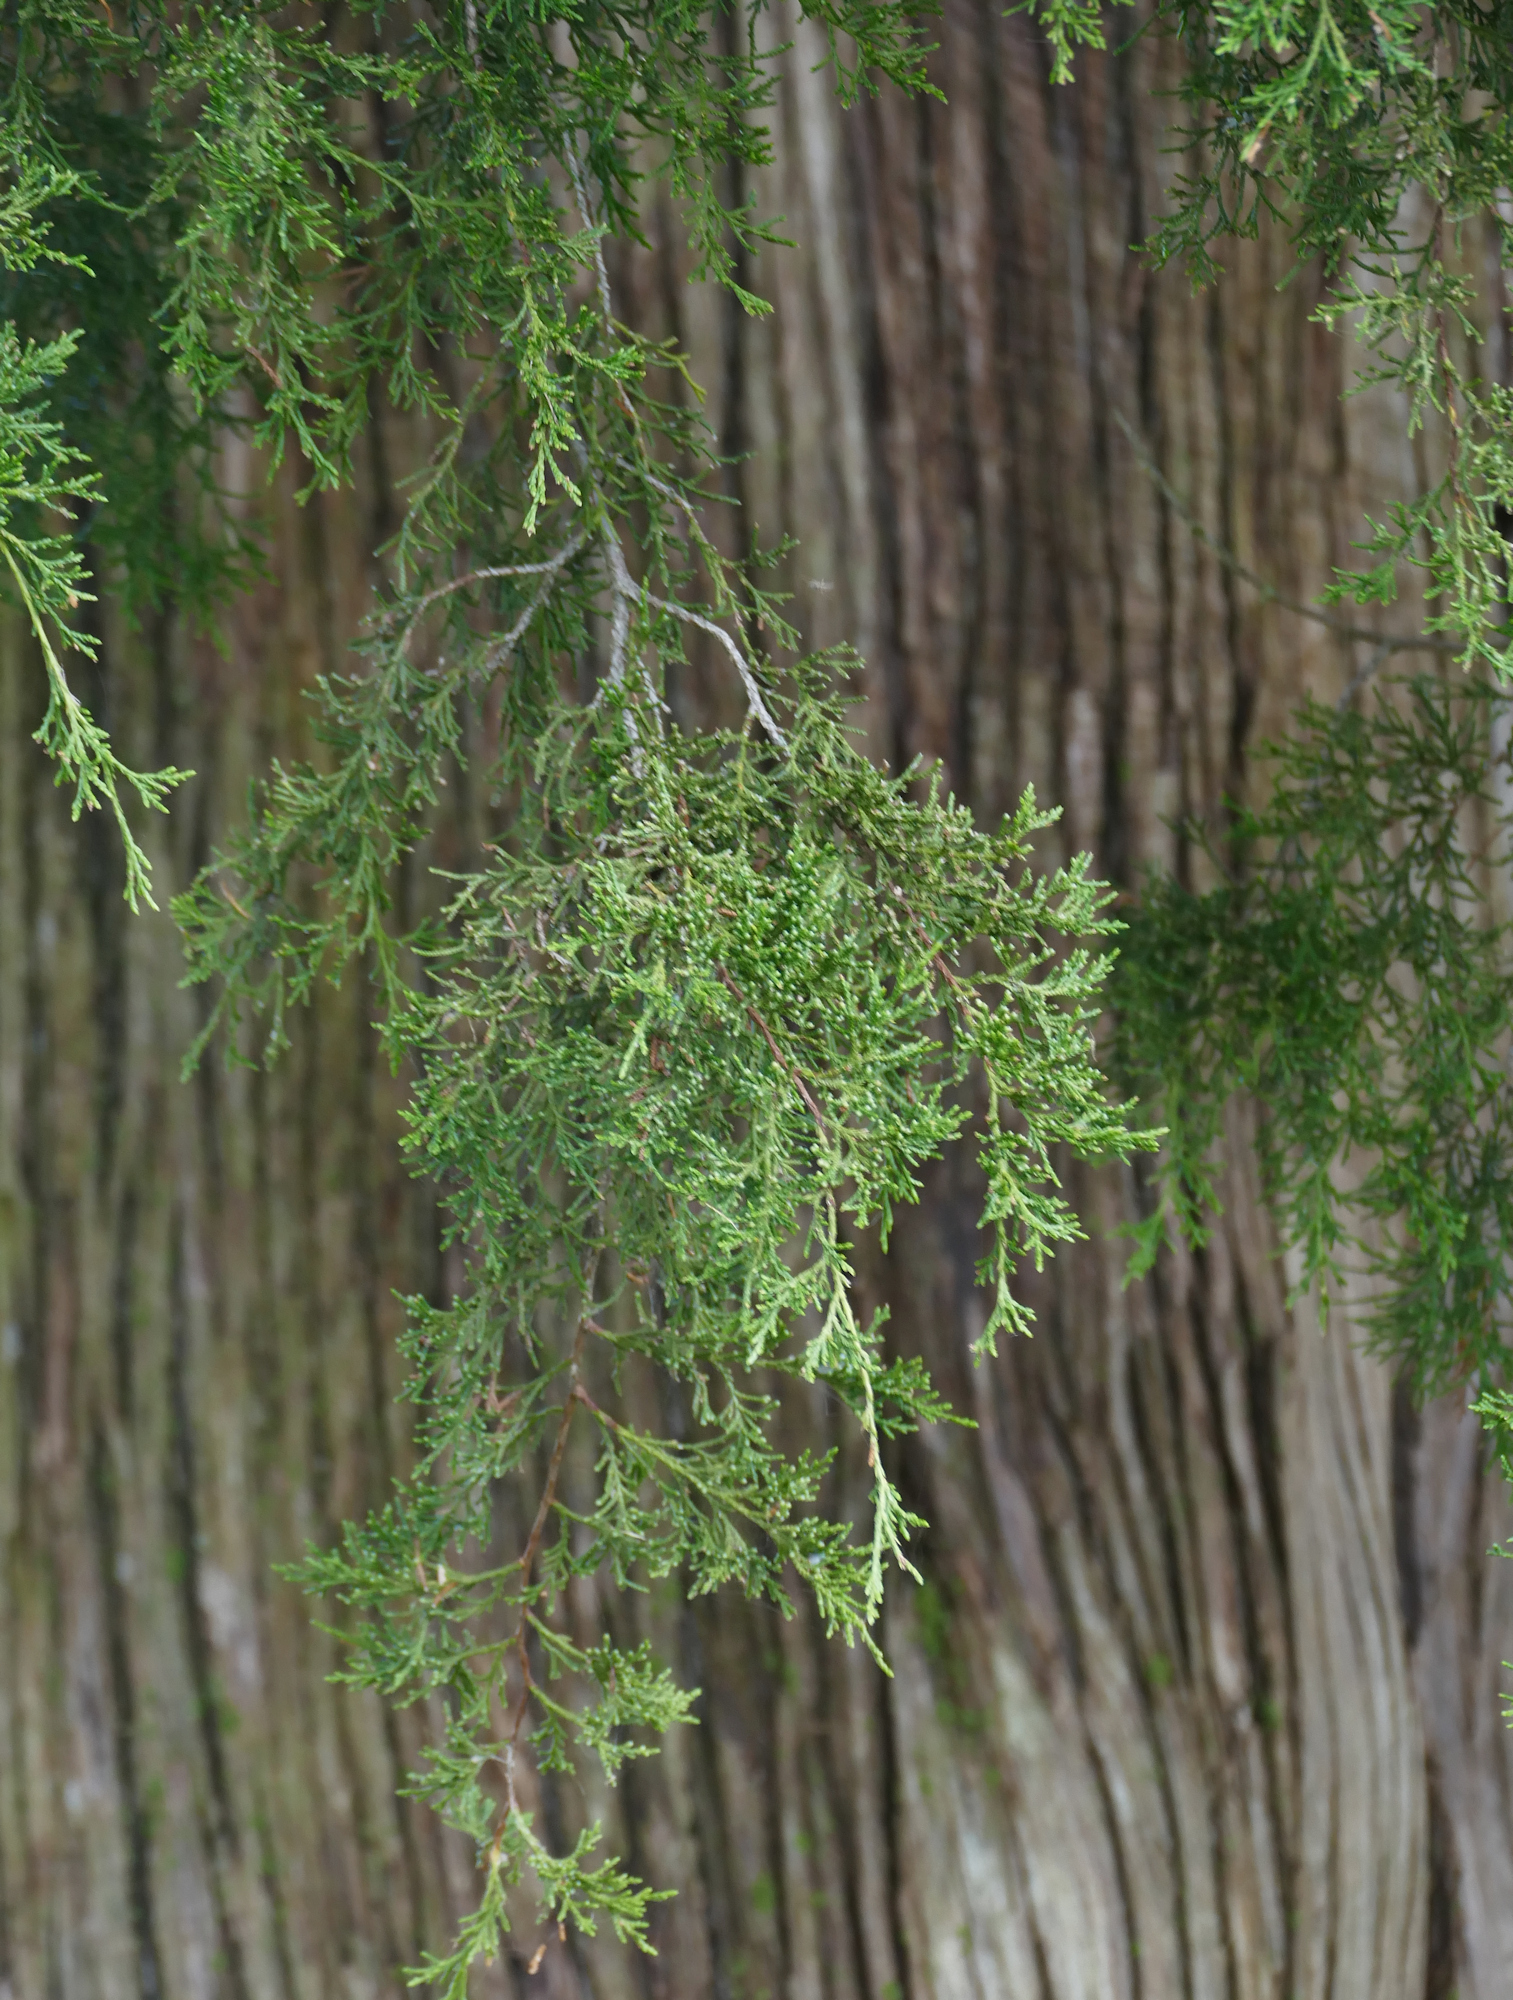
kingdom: Plantae
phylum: Tracheophyta
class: Pinopsida
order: Pinales
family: Cupressaceae
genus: Juniperus
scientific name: Juniperus virginiana
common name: Red juniper
